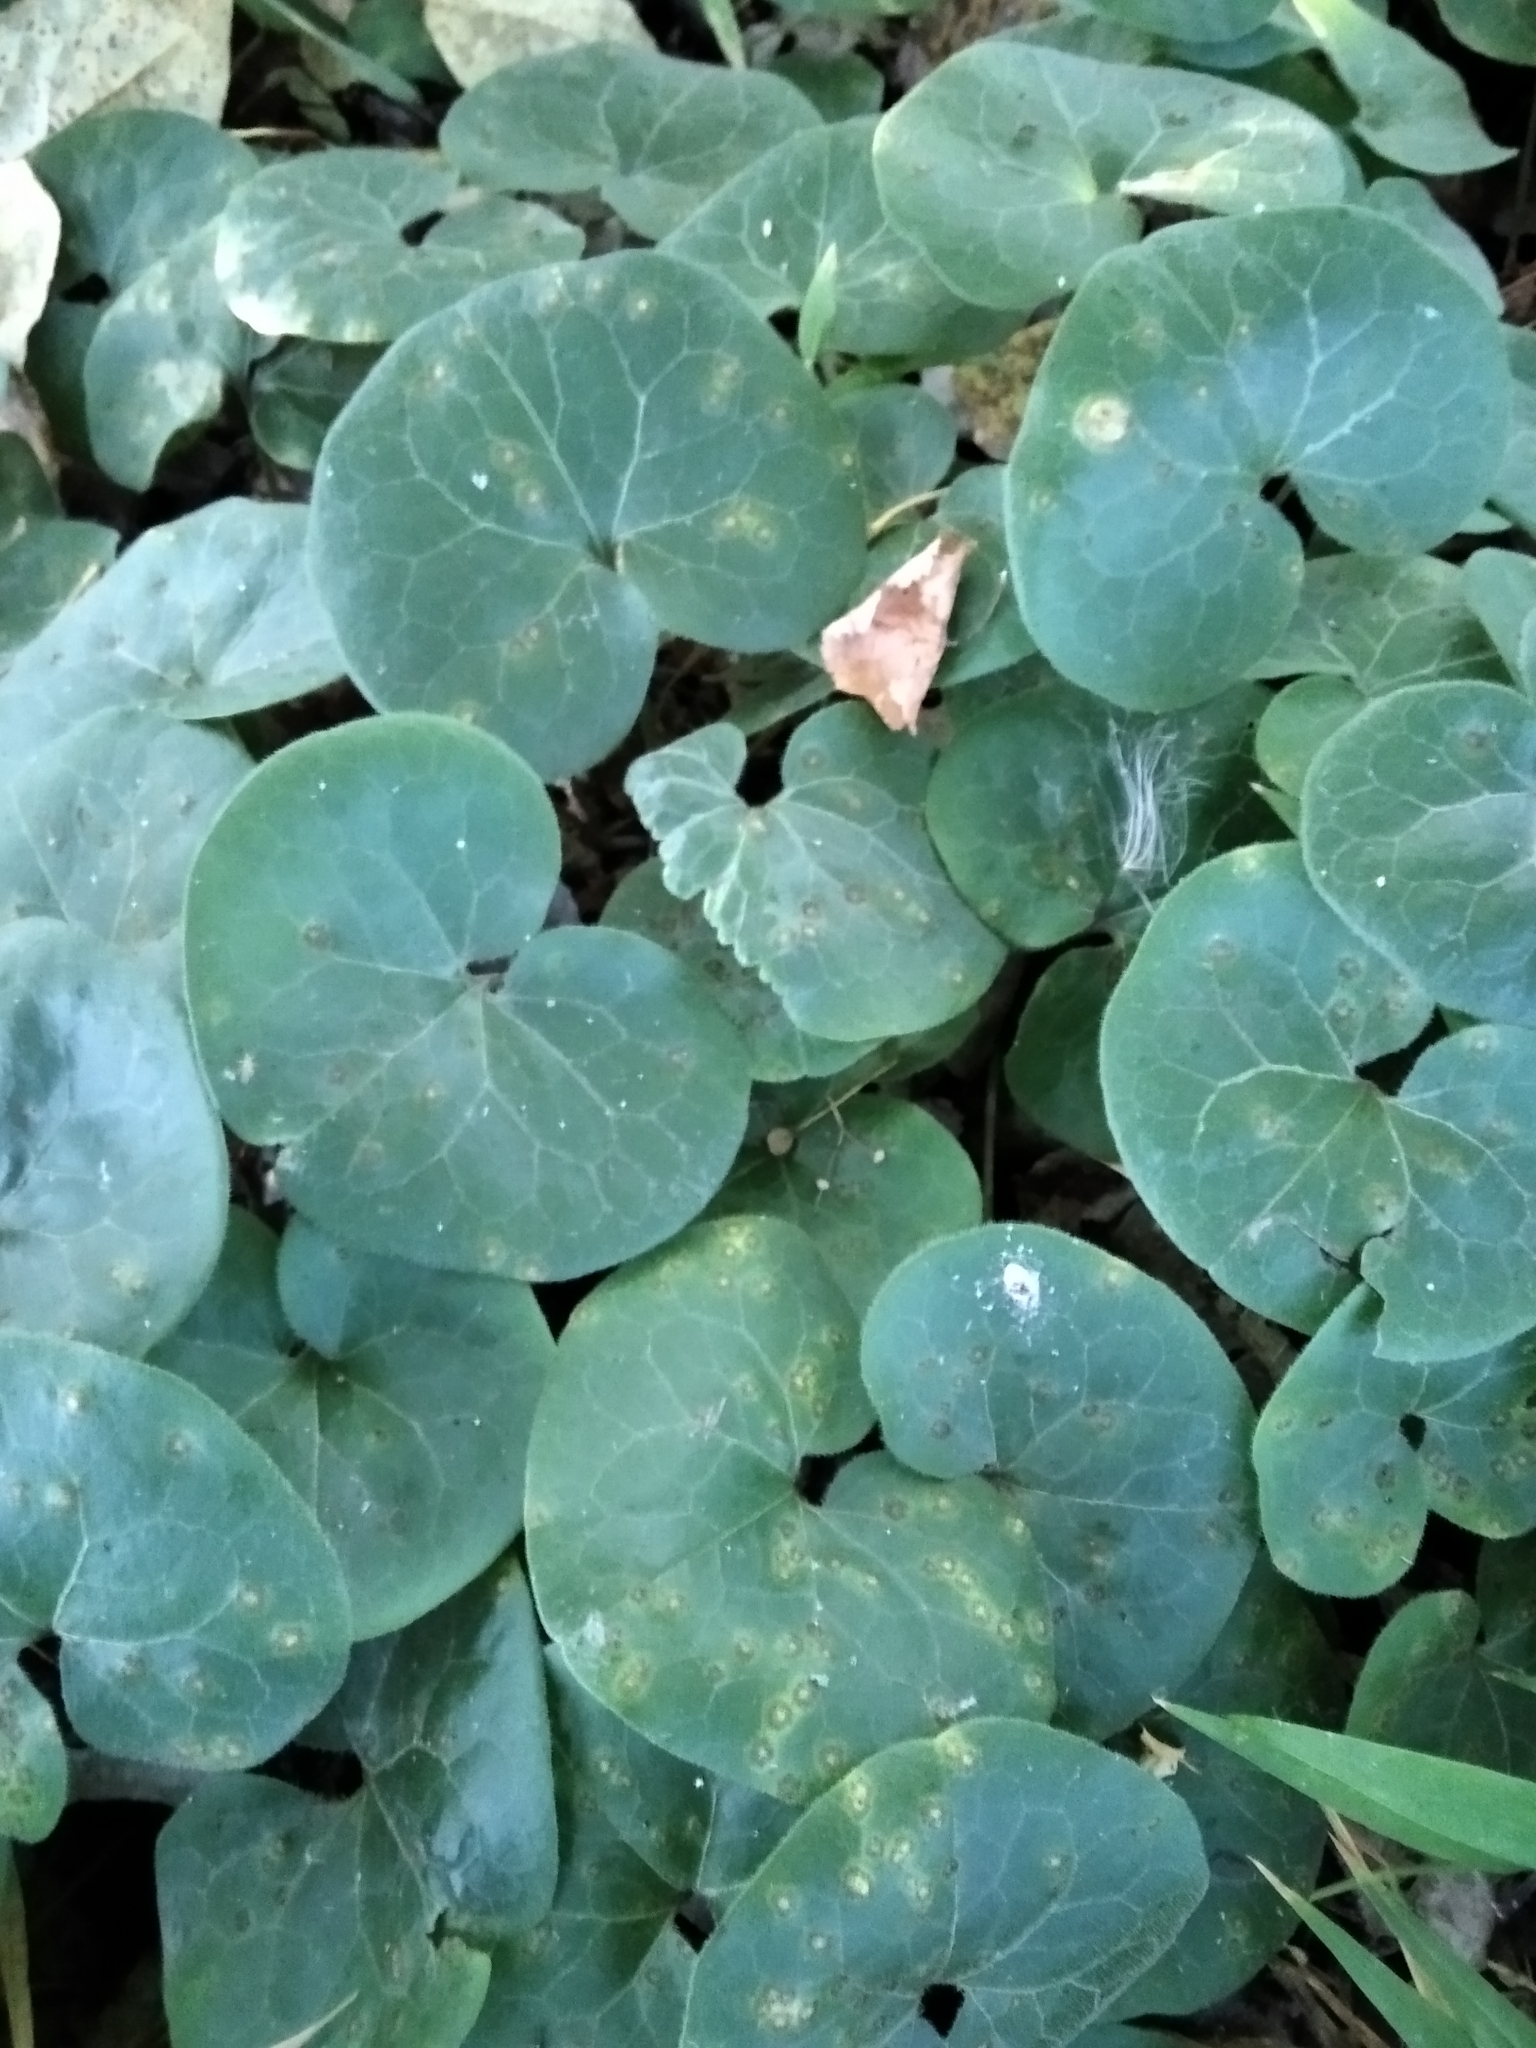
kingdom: Plantae
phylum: Tracheophyta
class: Magnoliopsida
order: Piperales
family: Aristolochiaceae
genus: Asarum
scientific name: Asarum europaeum
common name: Asarabacca
